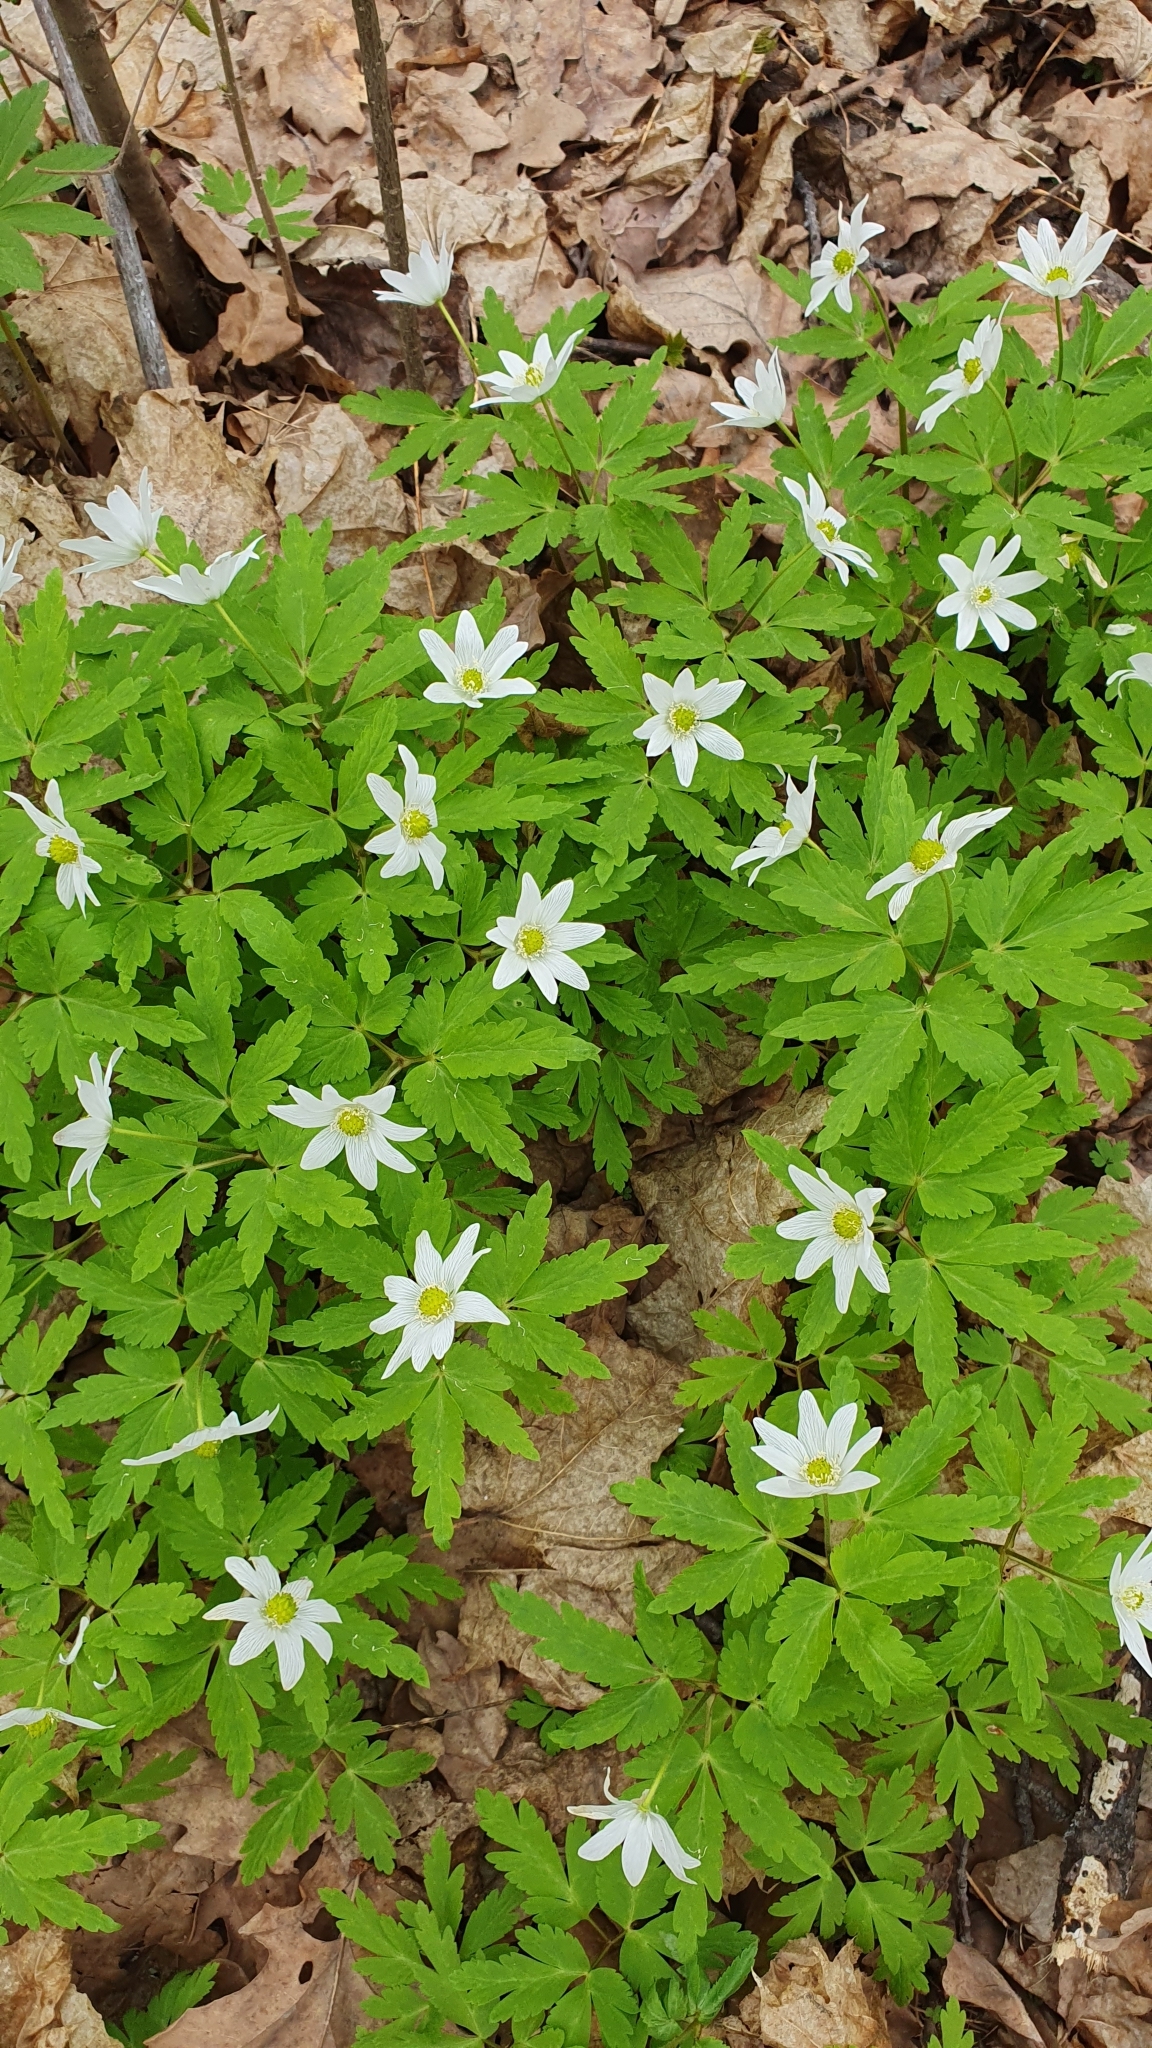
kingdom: Plantae
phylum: Tracheophyta
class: Magnoliopsida
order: Ranunculales
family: Ranunculaceae
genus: Anemone
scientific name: Anemone altaica
